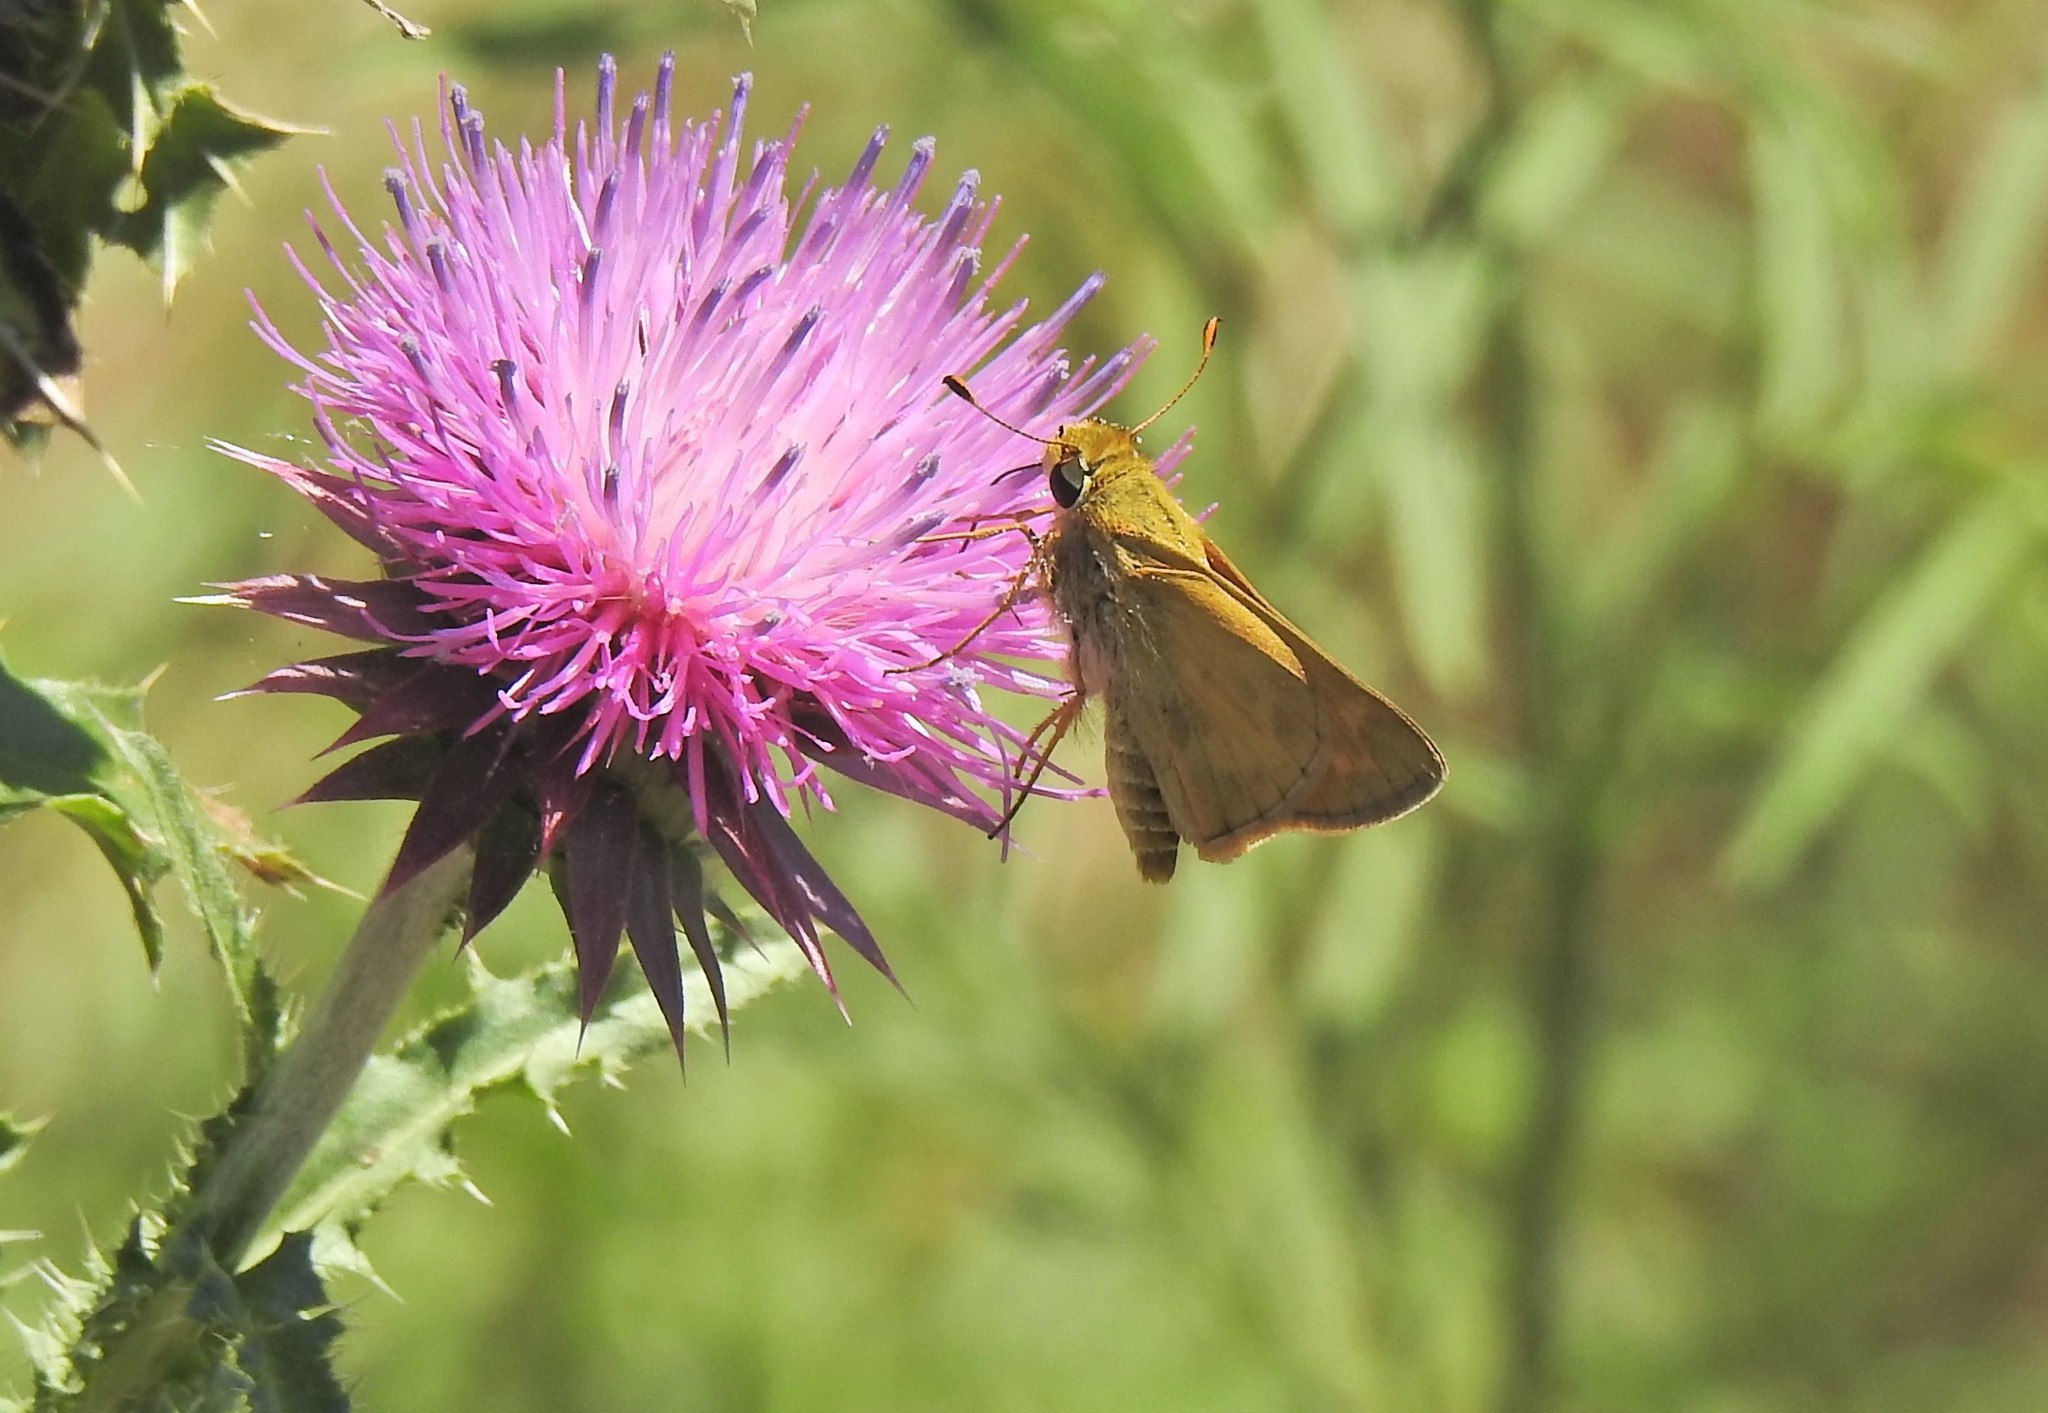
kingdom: Animalia
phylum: Arthropoda
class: Insecta
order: Lepidoptera
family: Hesperiidae
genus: Atalopedes
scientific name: Atalopedes
